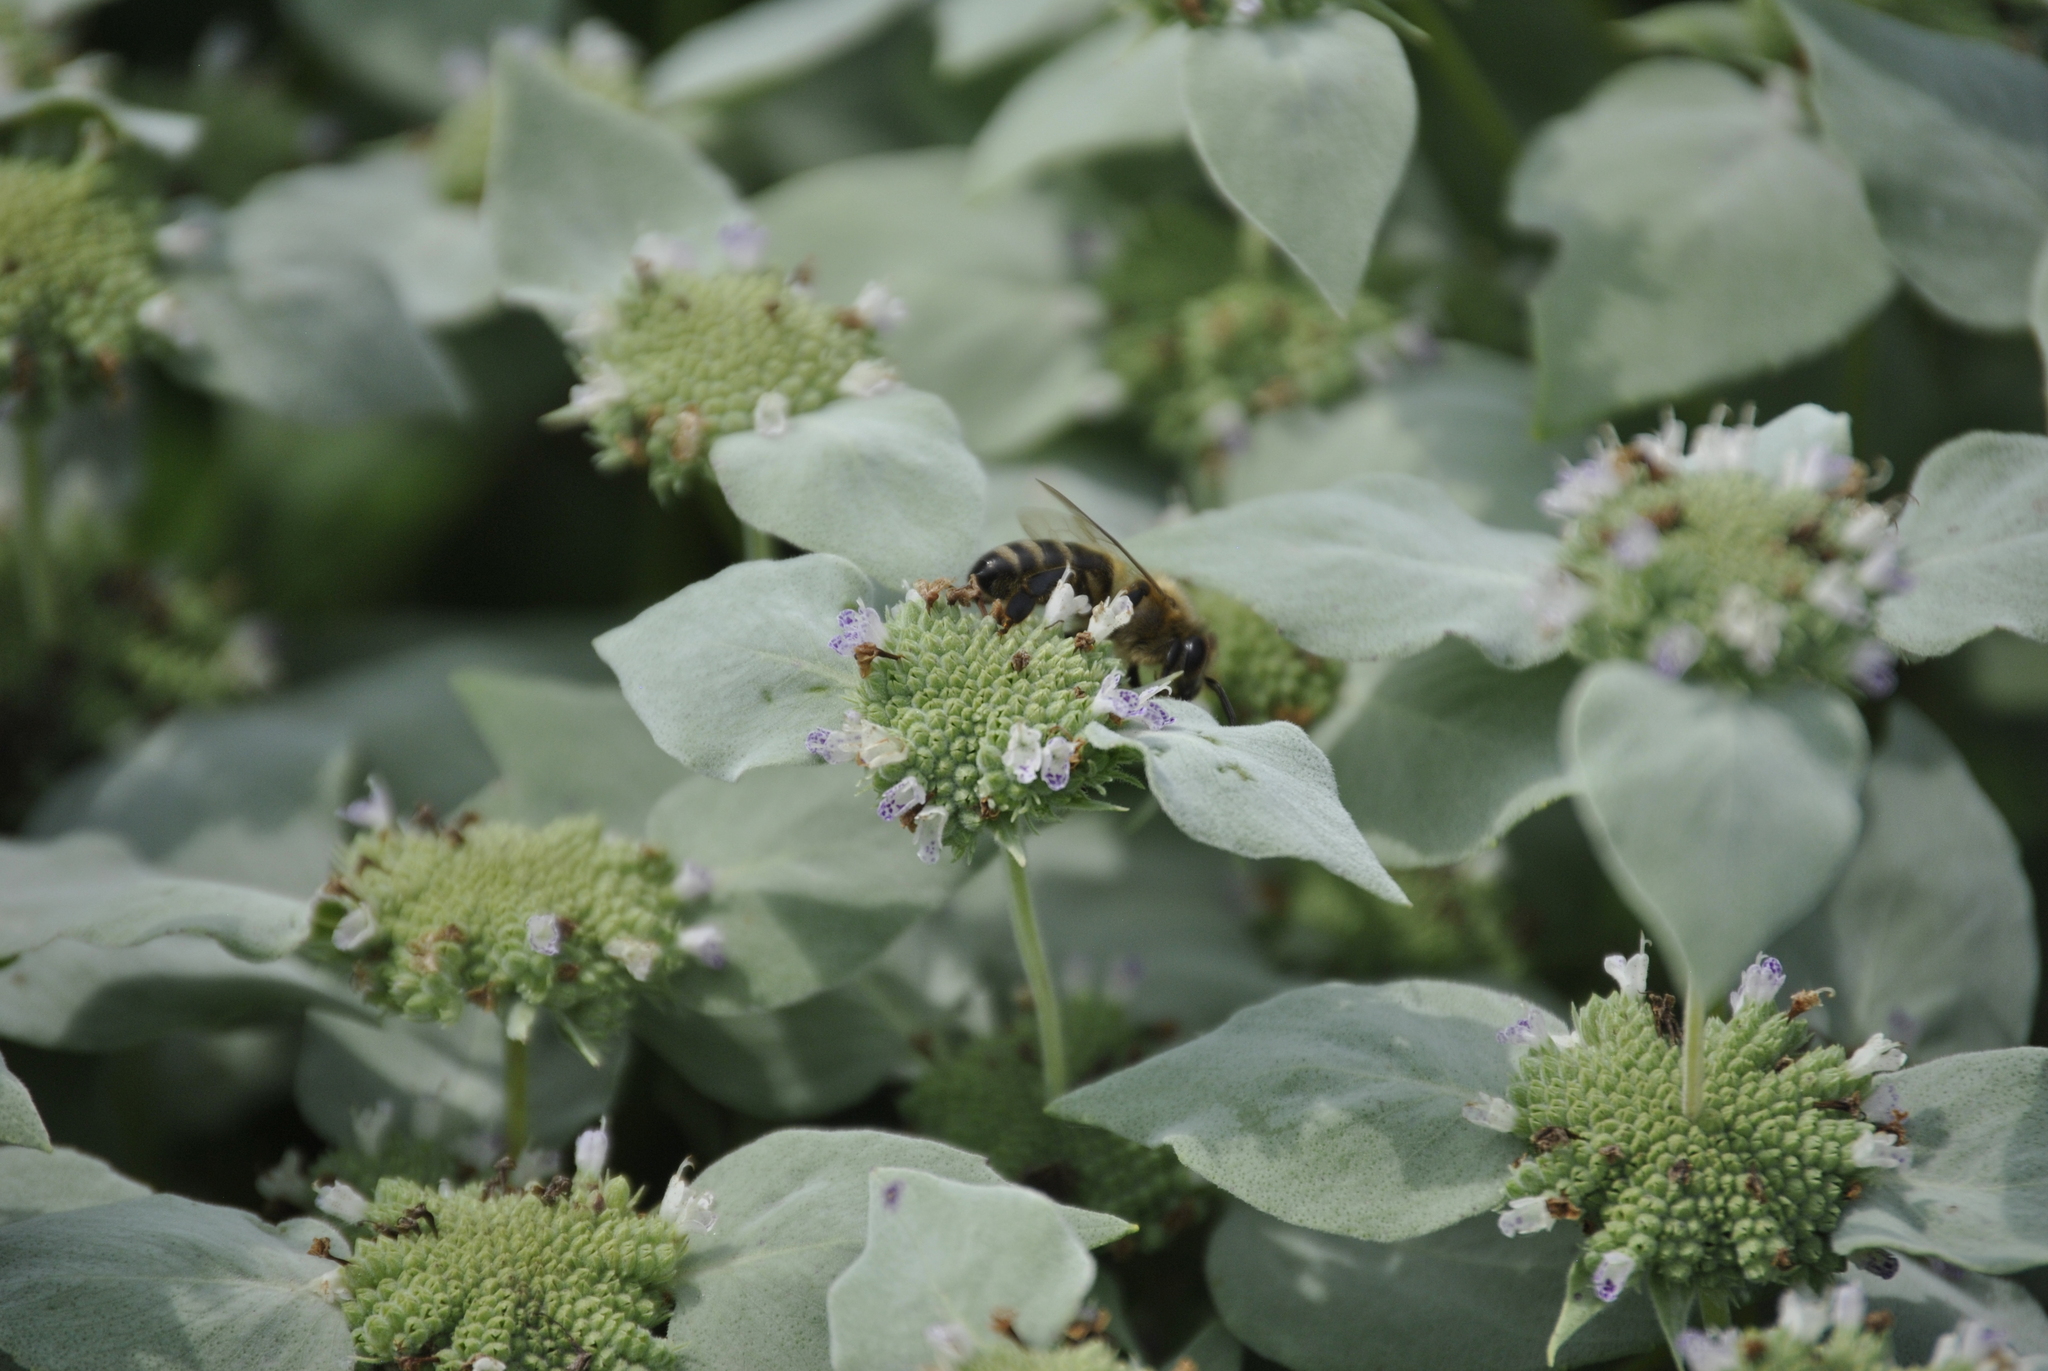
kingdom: Animalia
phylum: Arthropoda
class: Insecta
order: Hymenoptera
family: Apidae
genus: Apis
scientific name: Apis mellifera
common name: Honey bee
